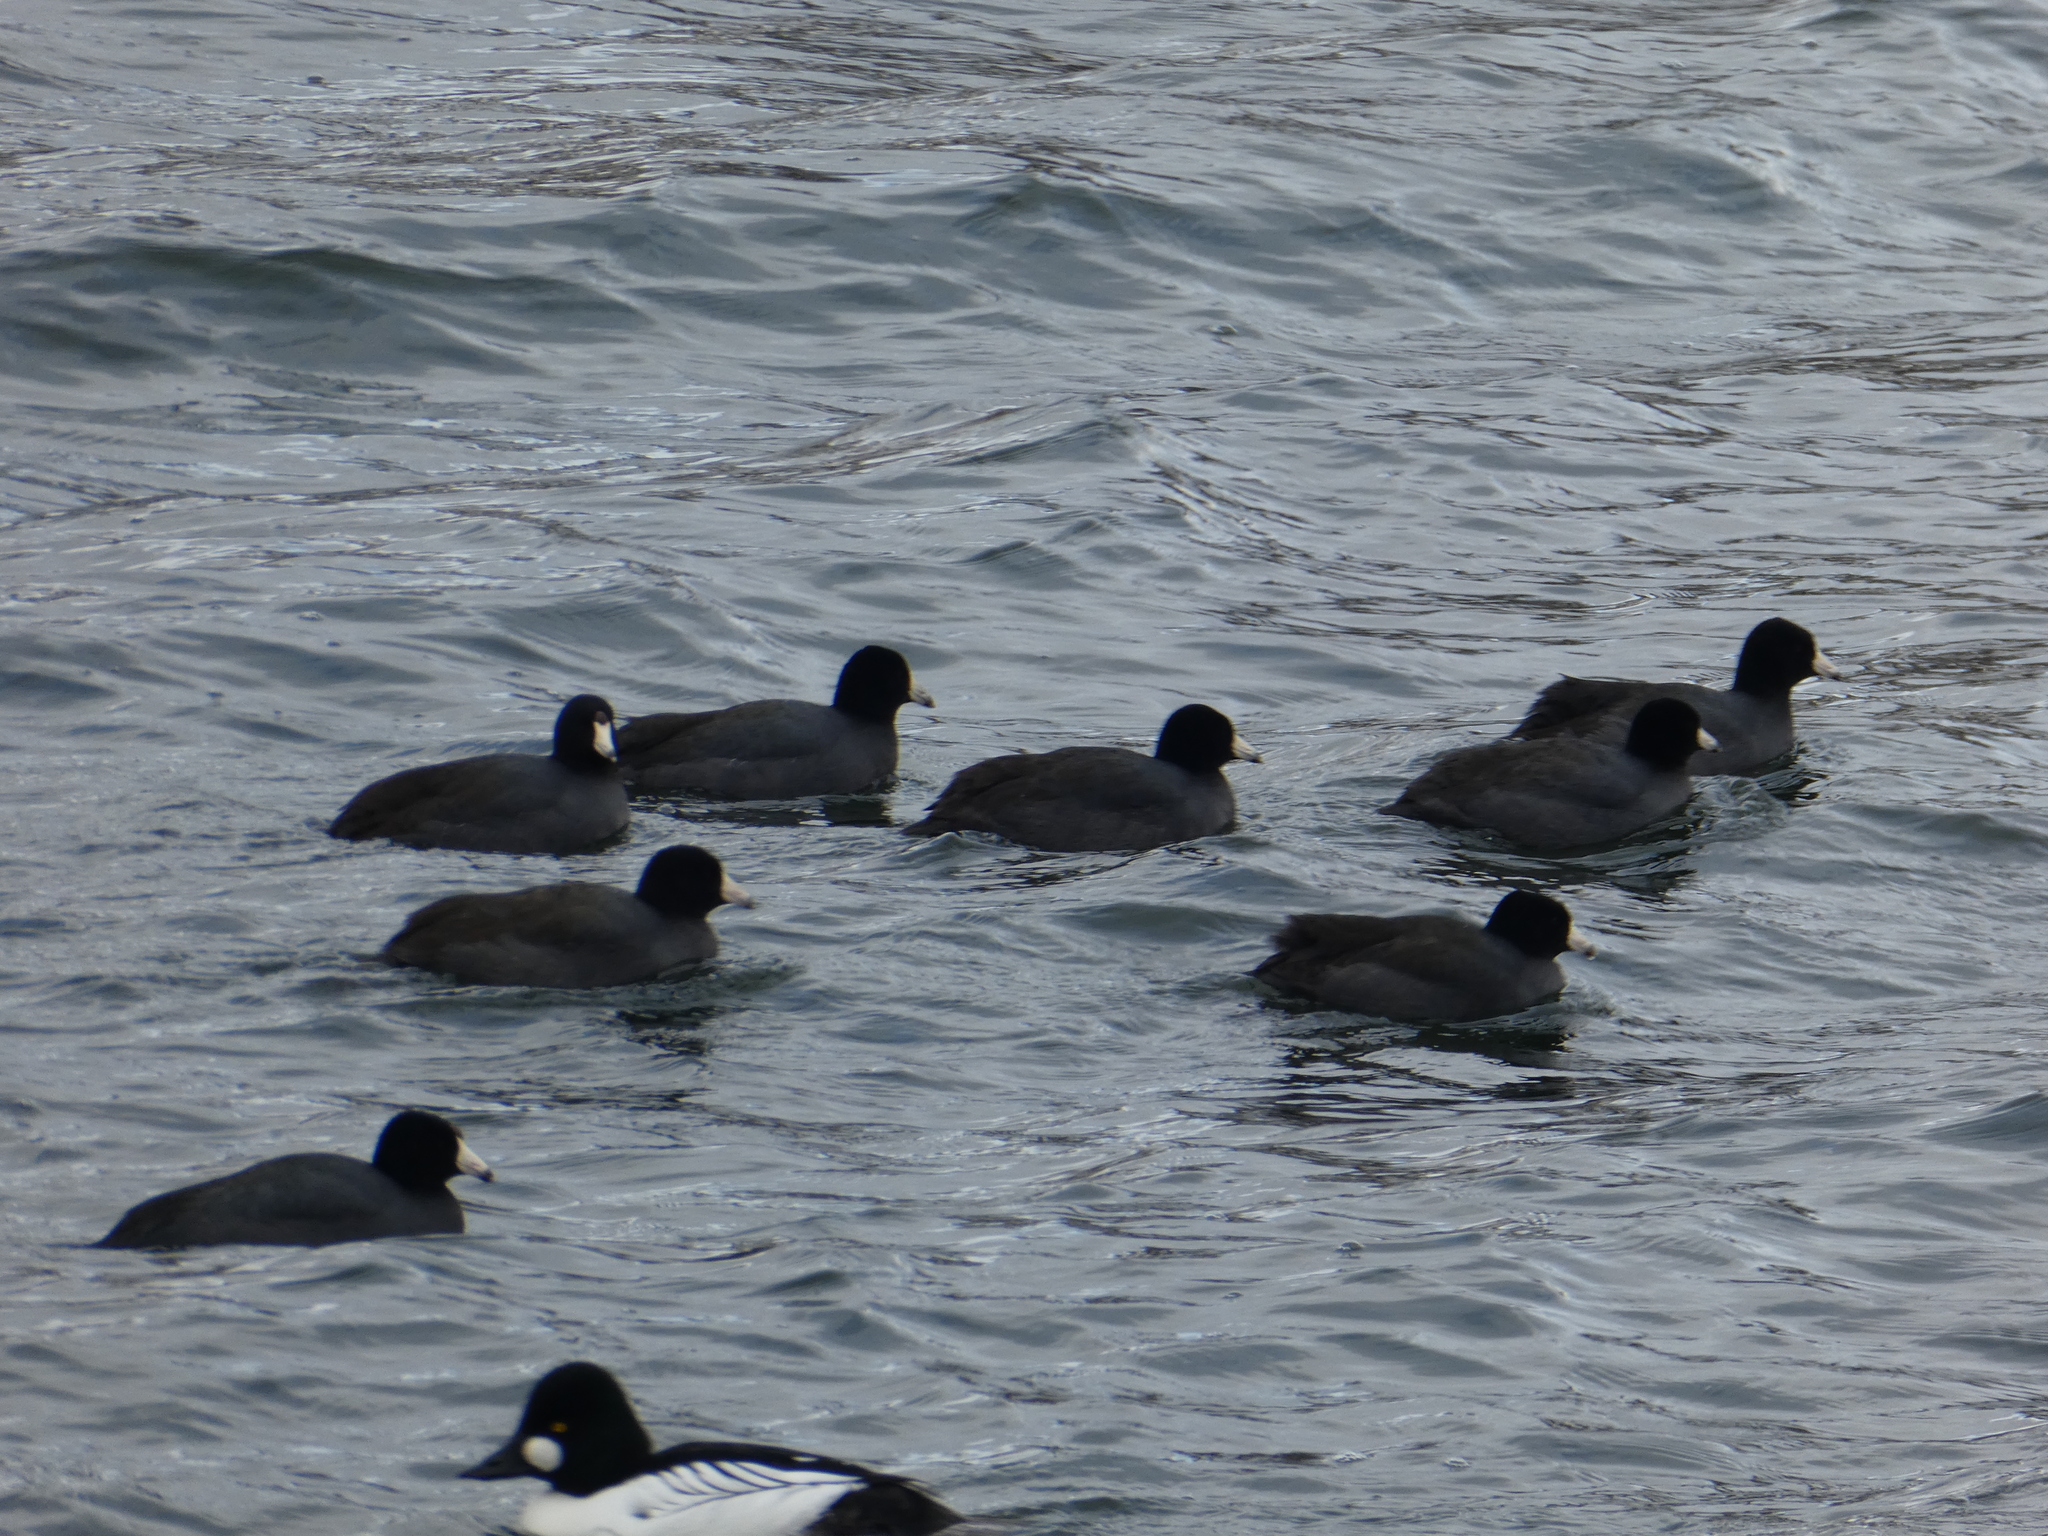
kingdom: Animalia
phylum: Chordata
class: Aves
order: Gruiformes
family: Rallidae
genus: Fulica
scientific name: Fulica americana
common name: American coot
